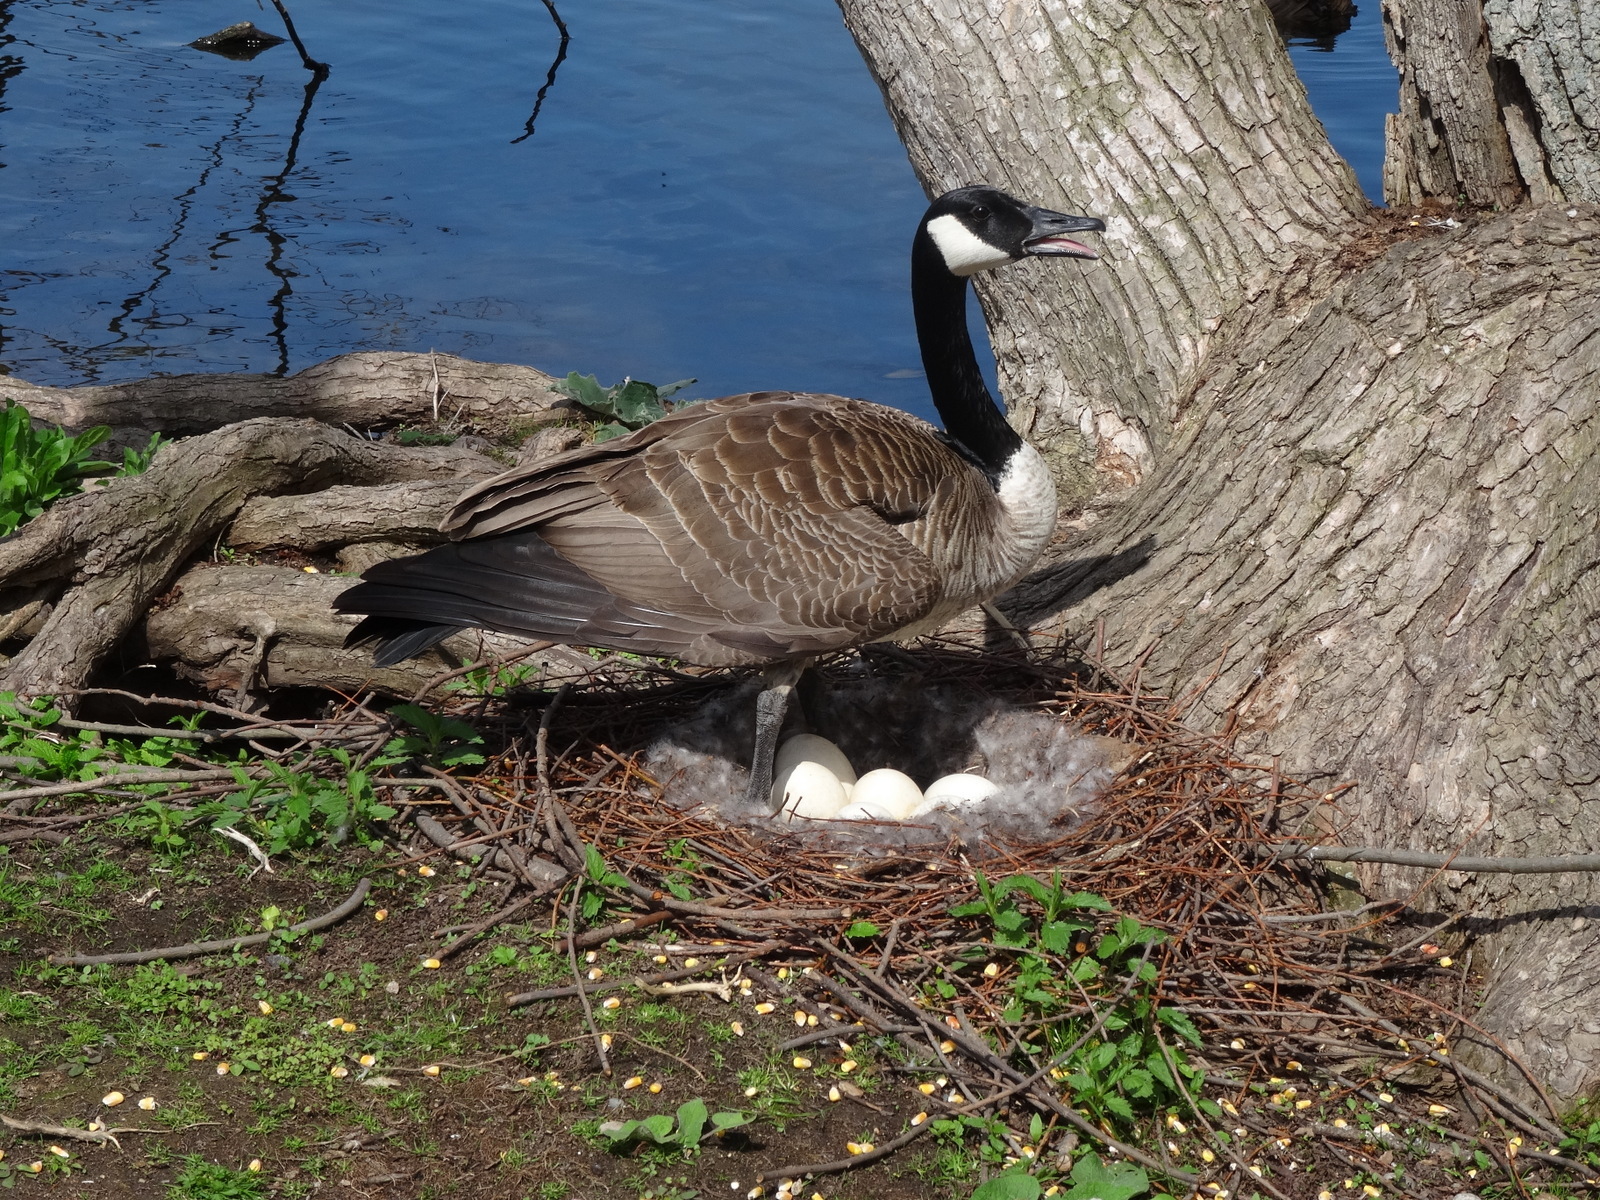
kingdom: Animalia
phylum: Chordata
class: Aves
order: Anseriformes
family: Anatidae
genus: Branta
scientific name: Branta canadensis
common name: Canada goose
